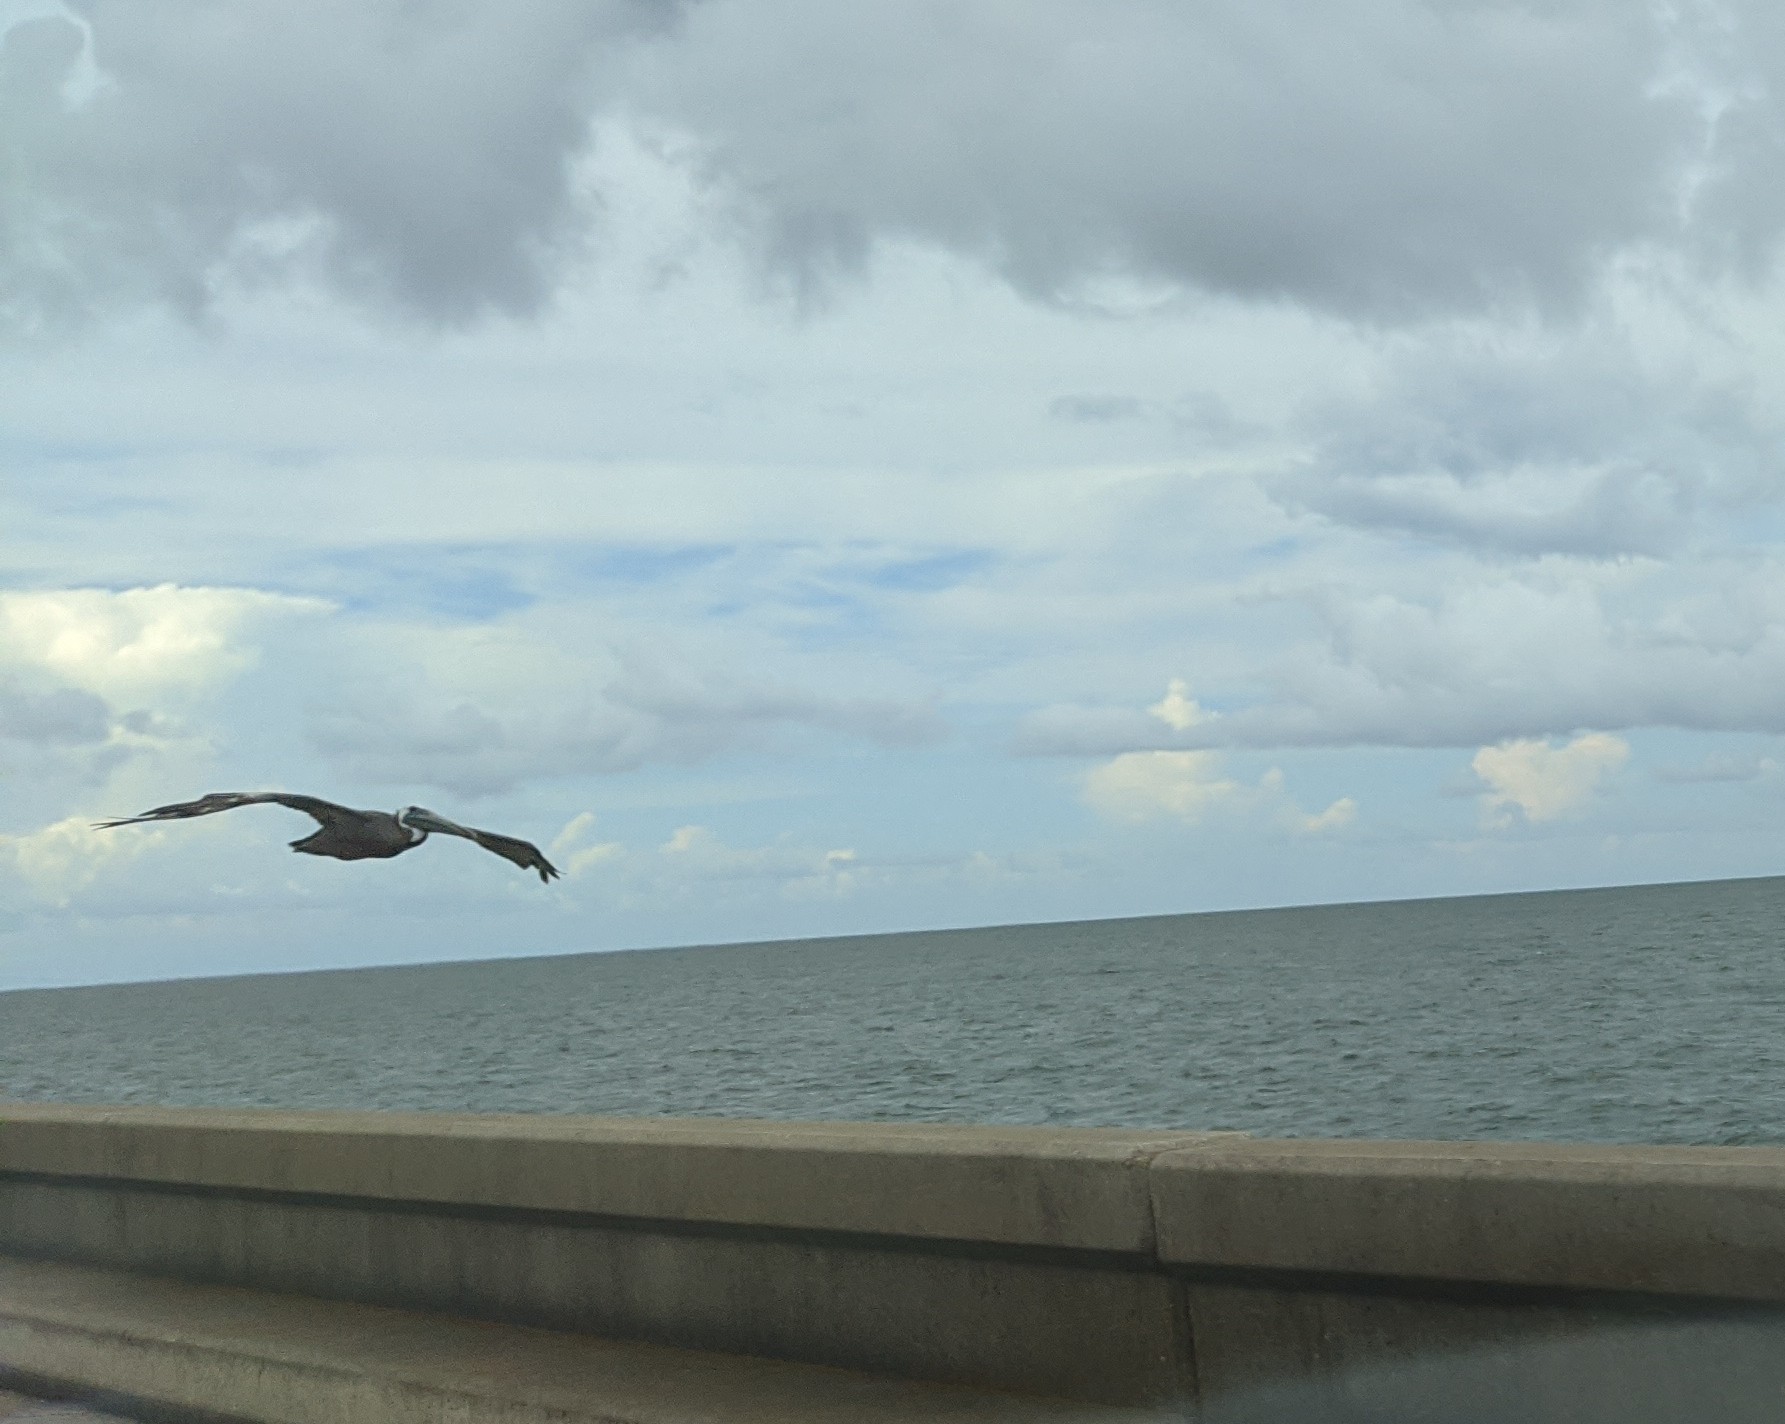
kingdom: Animalia
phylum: Chordata
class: Aves
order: Pelecaniformes
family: Pelecanidae
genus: Pelecanus
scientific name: Pelecanus occidentalis
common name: Brown pelican
